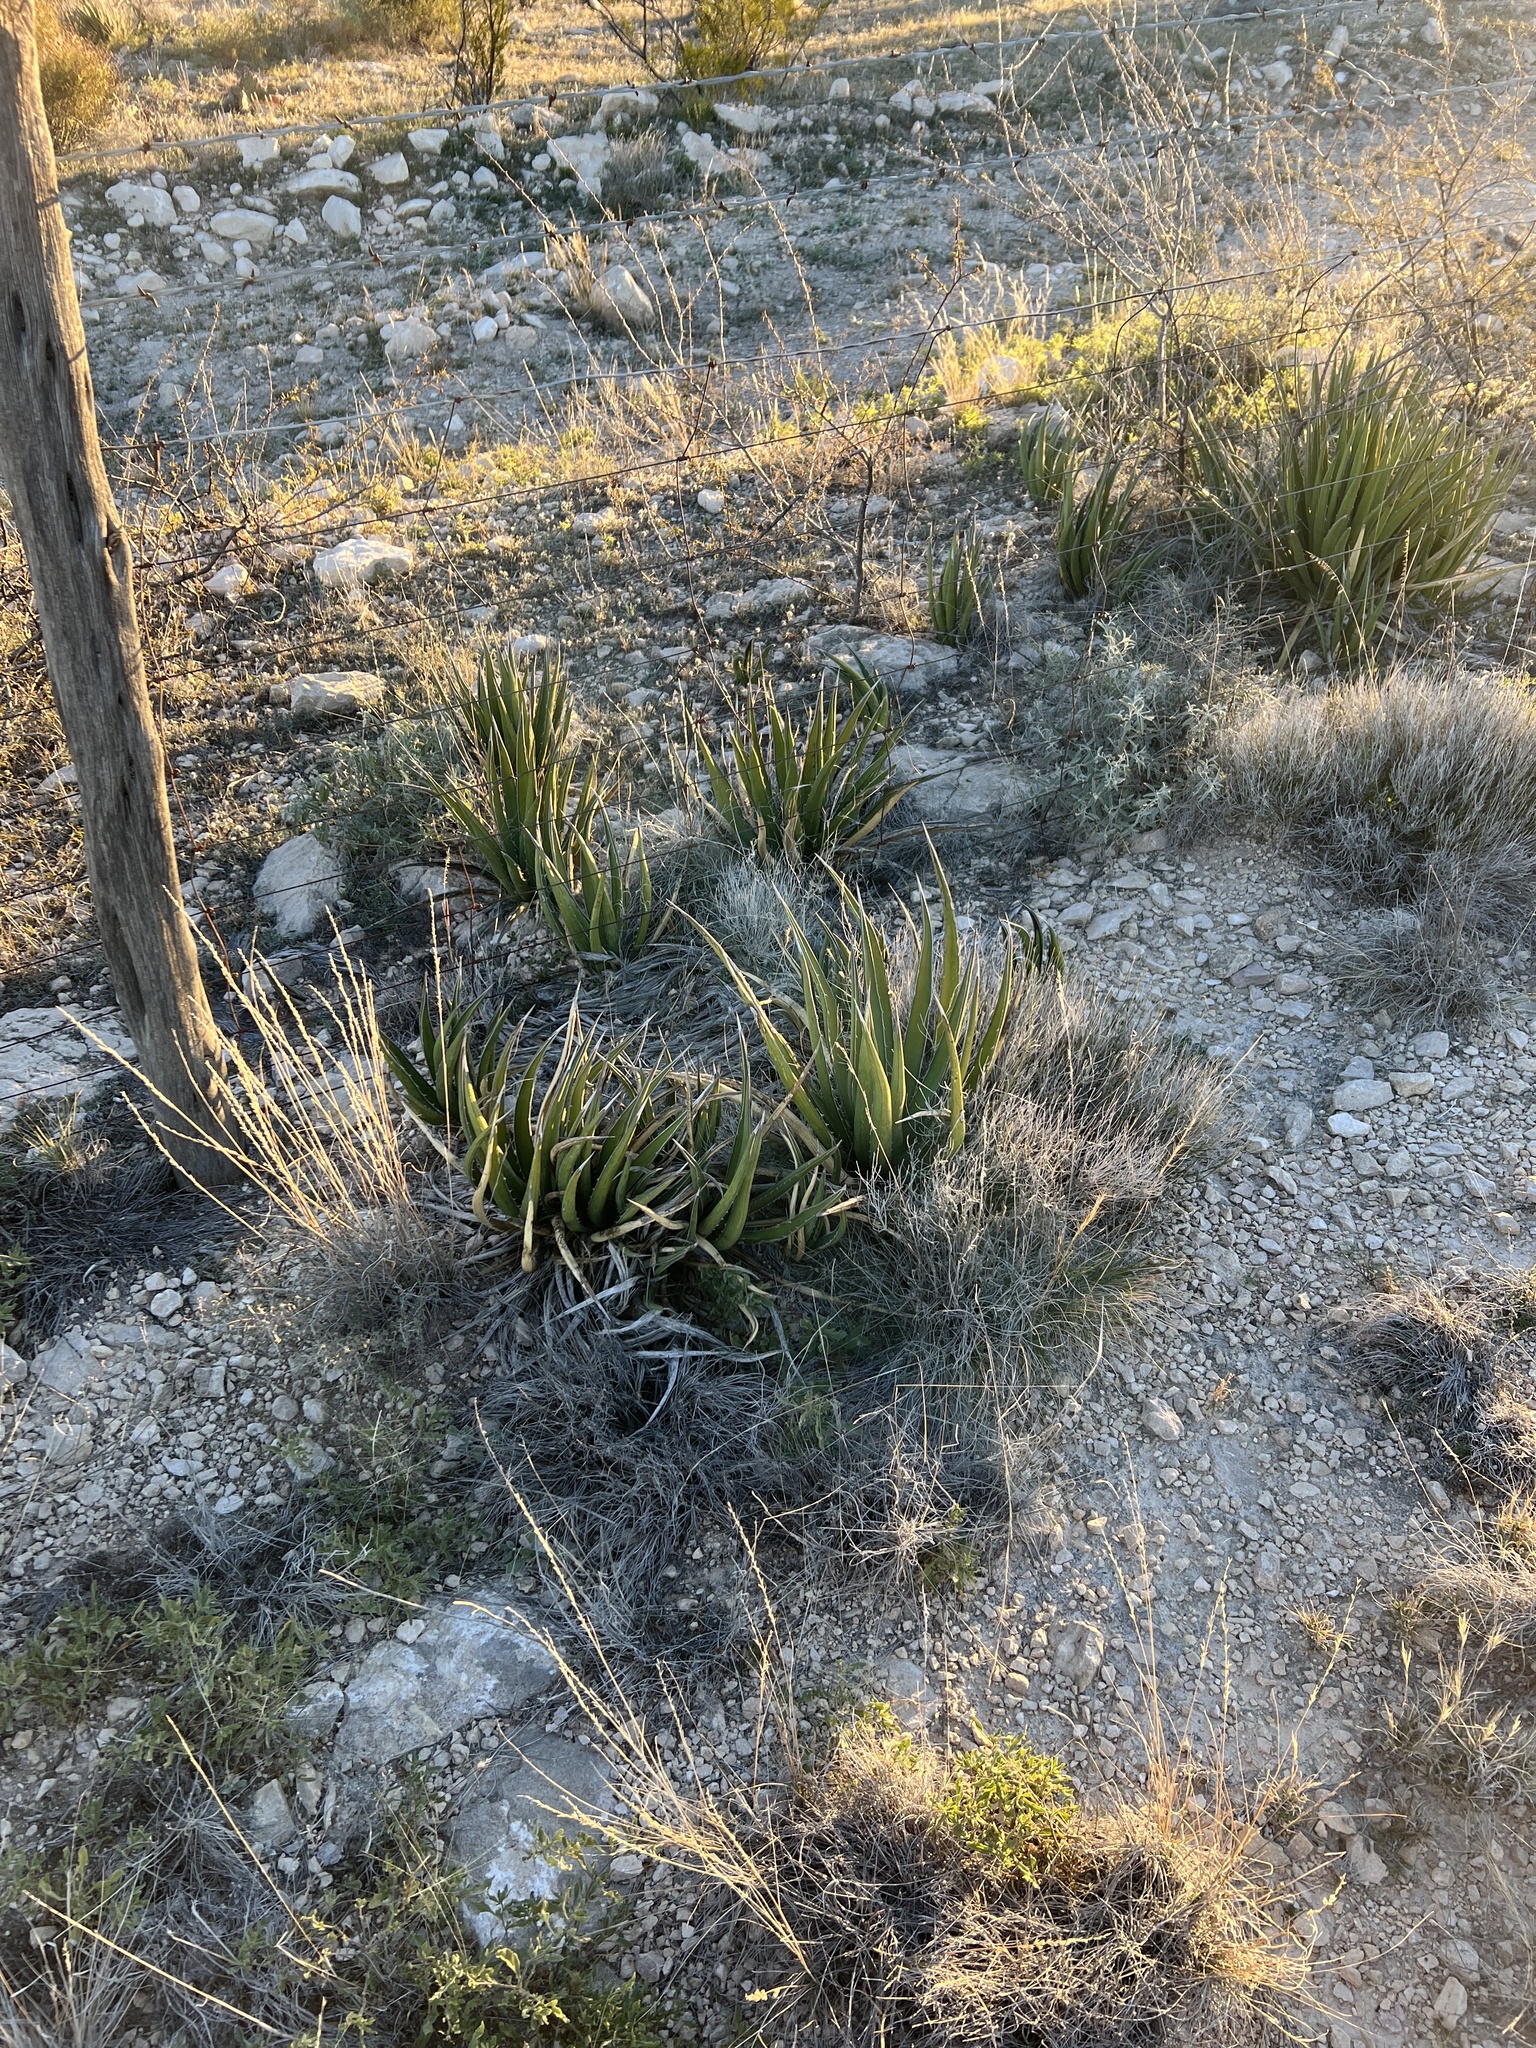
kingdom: Plantae
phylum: Tracheophyta
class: Liliopsida
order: Asparagales
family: Asparagaceae
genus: Agave
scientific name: Agave lechuguilla
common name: Lecheguilla agave
